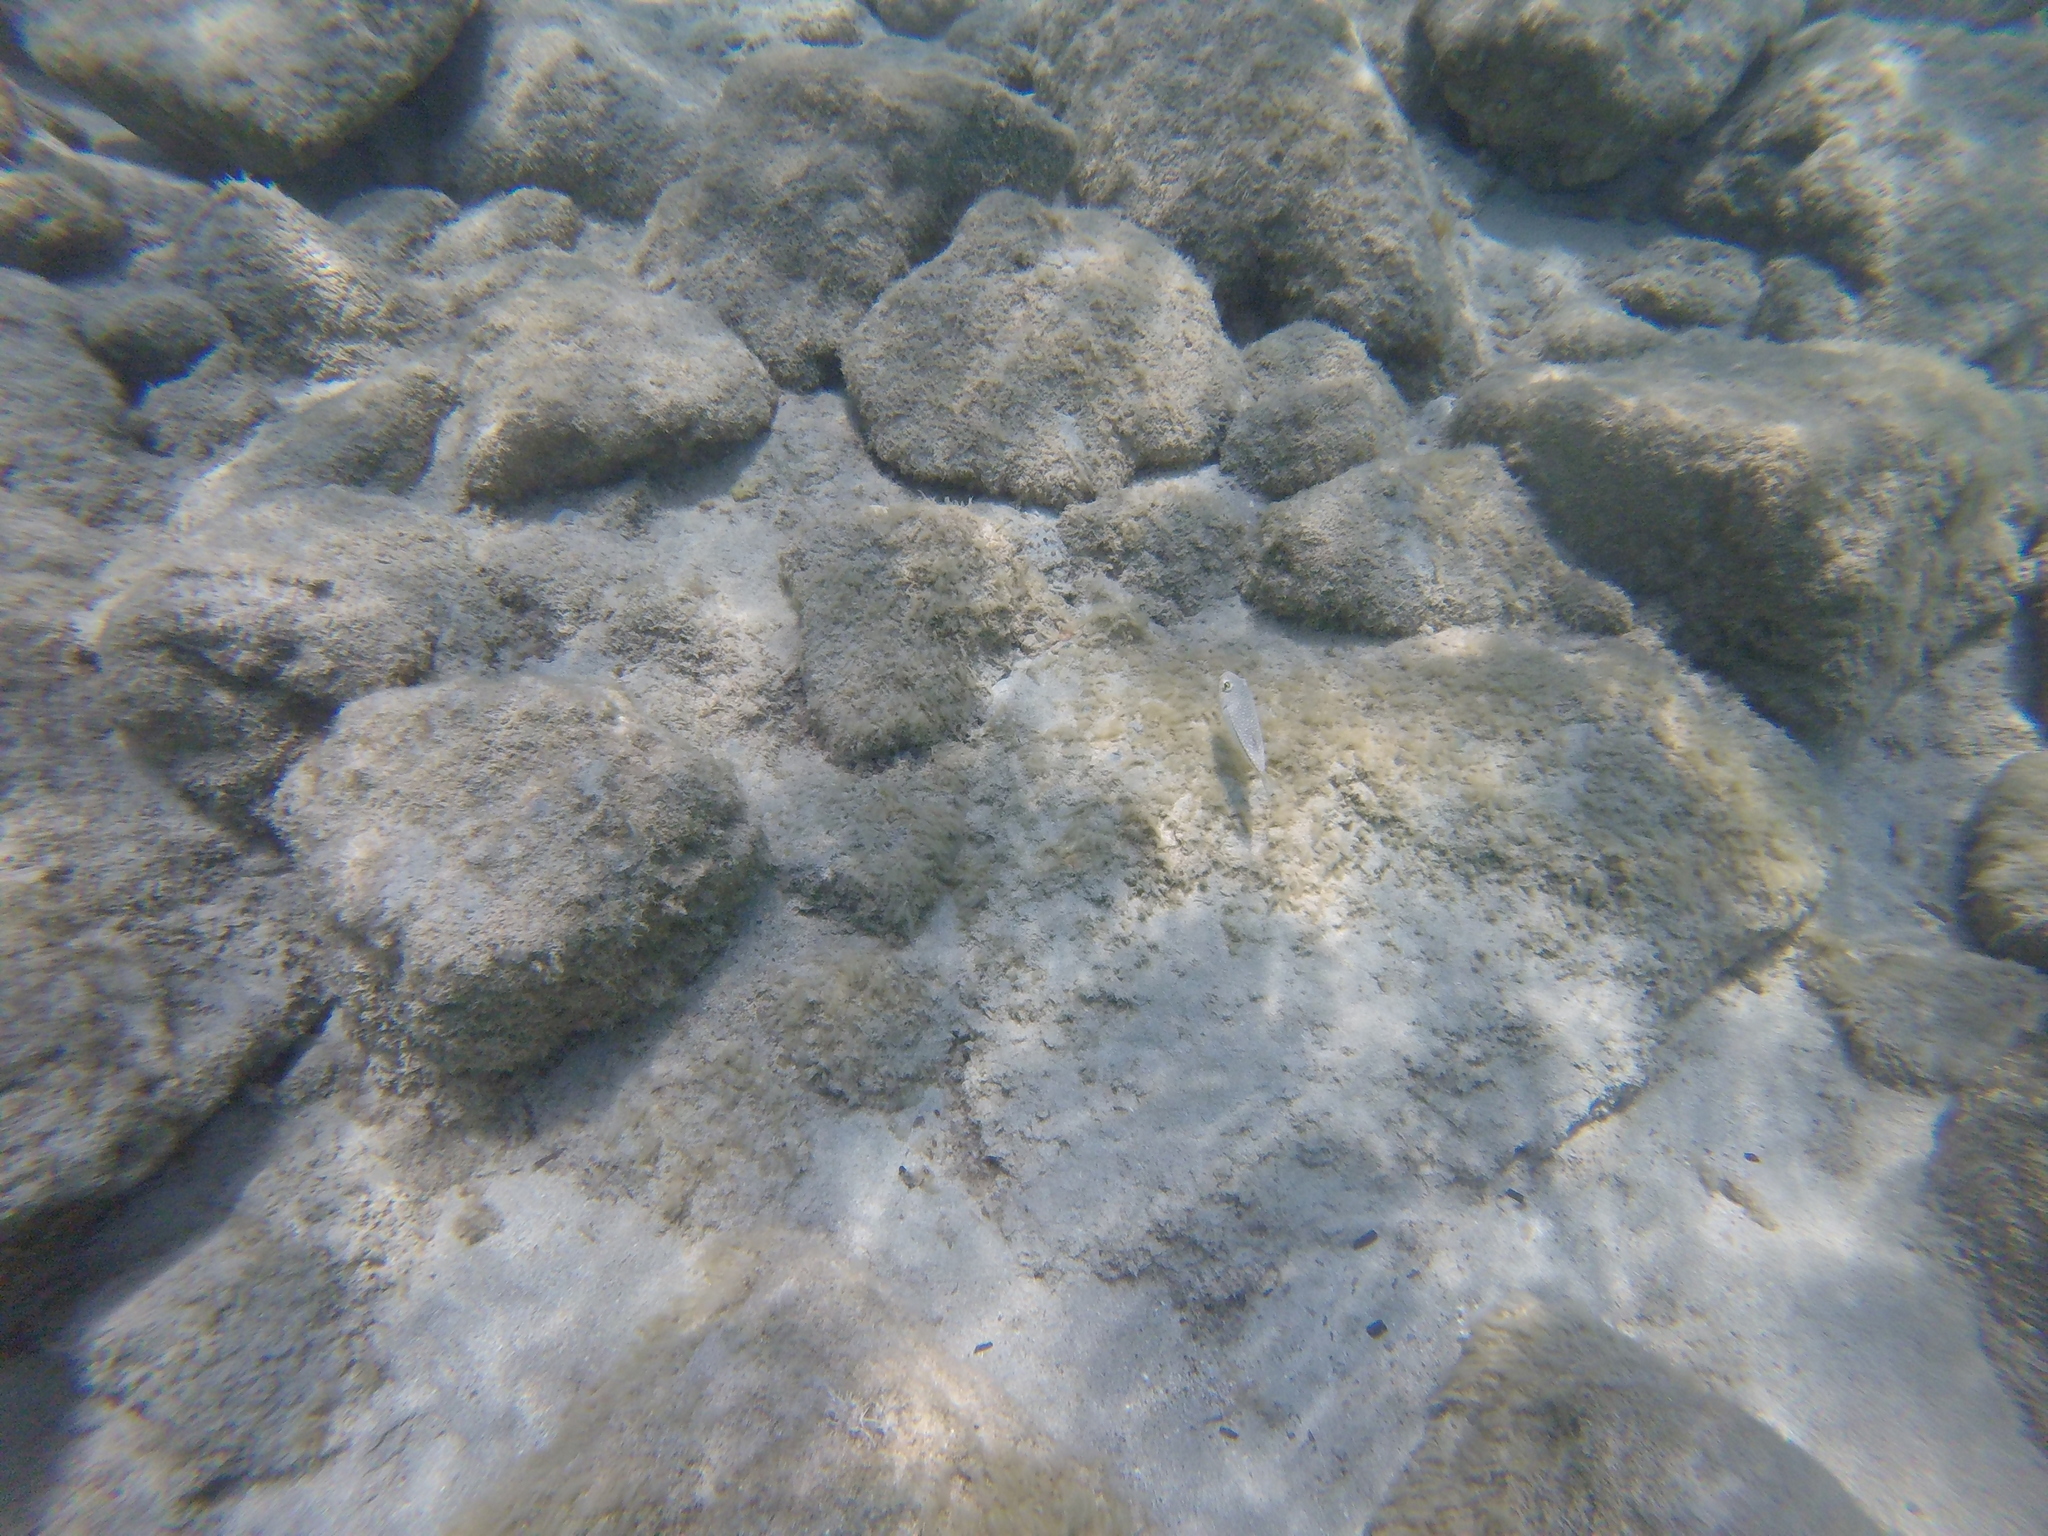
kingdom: Animalia
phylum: Chordata
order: Tetraodontiformes
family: Tetraodontidae
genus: Torquigener
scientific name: Torquigener flavimaculosus
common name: Studded pufferfish
